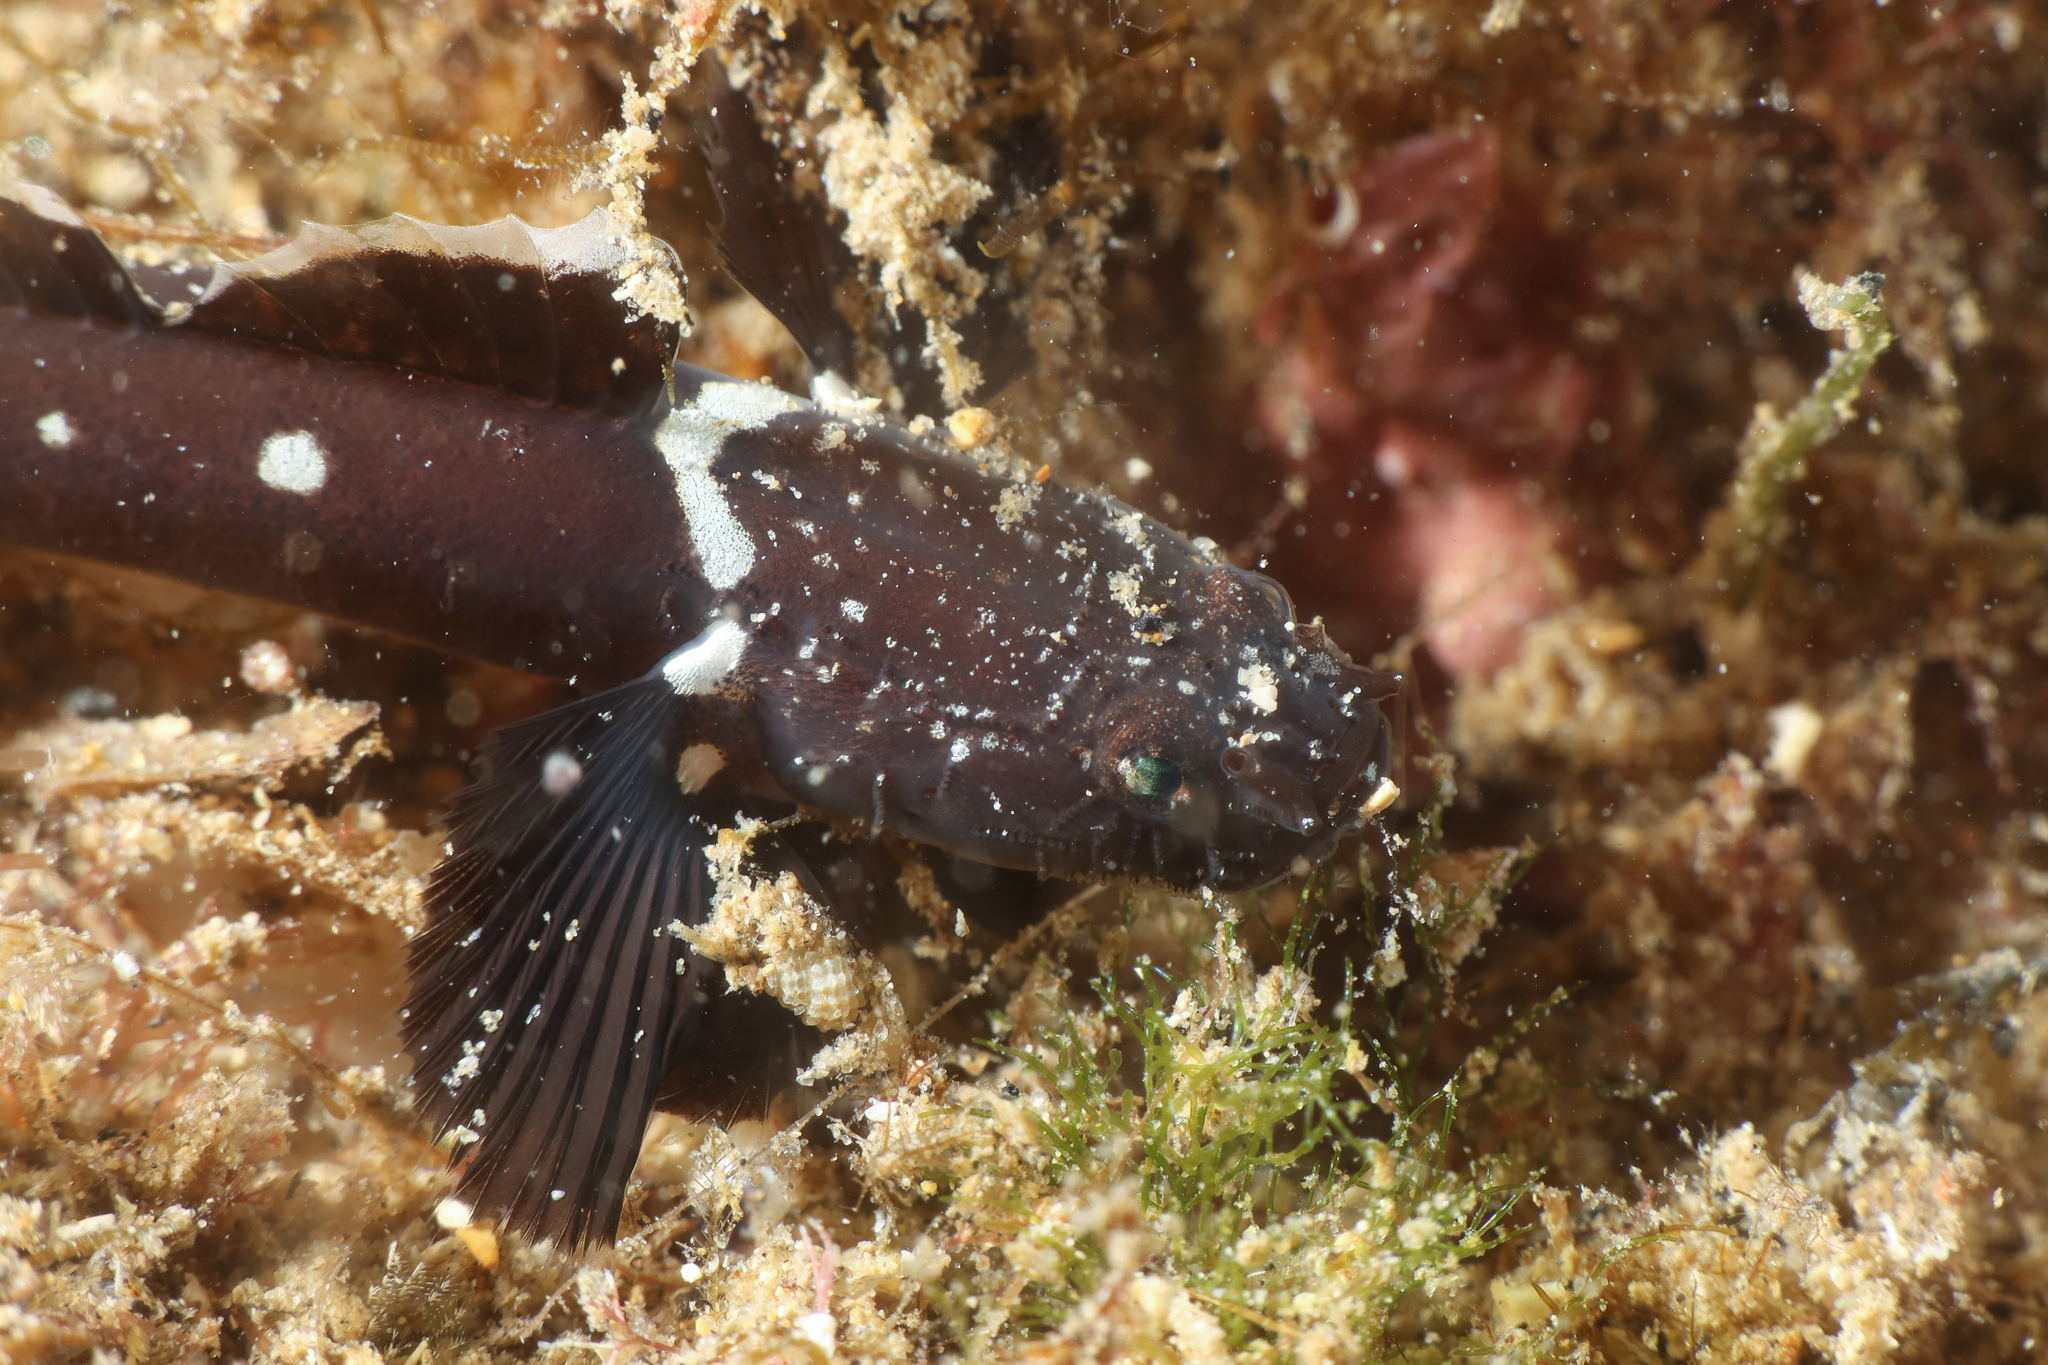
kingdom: Animalia
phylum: Chordata
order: Perciformes
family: Gobiidae
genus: Didogobius
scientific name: Didogobius schlieweni
